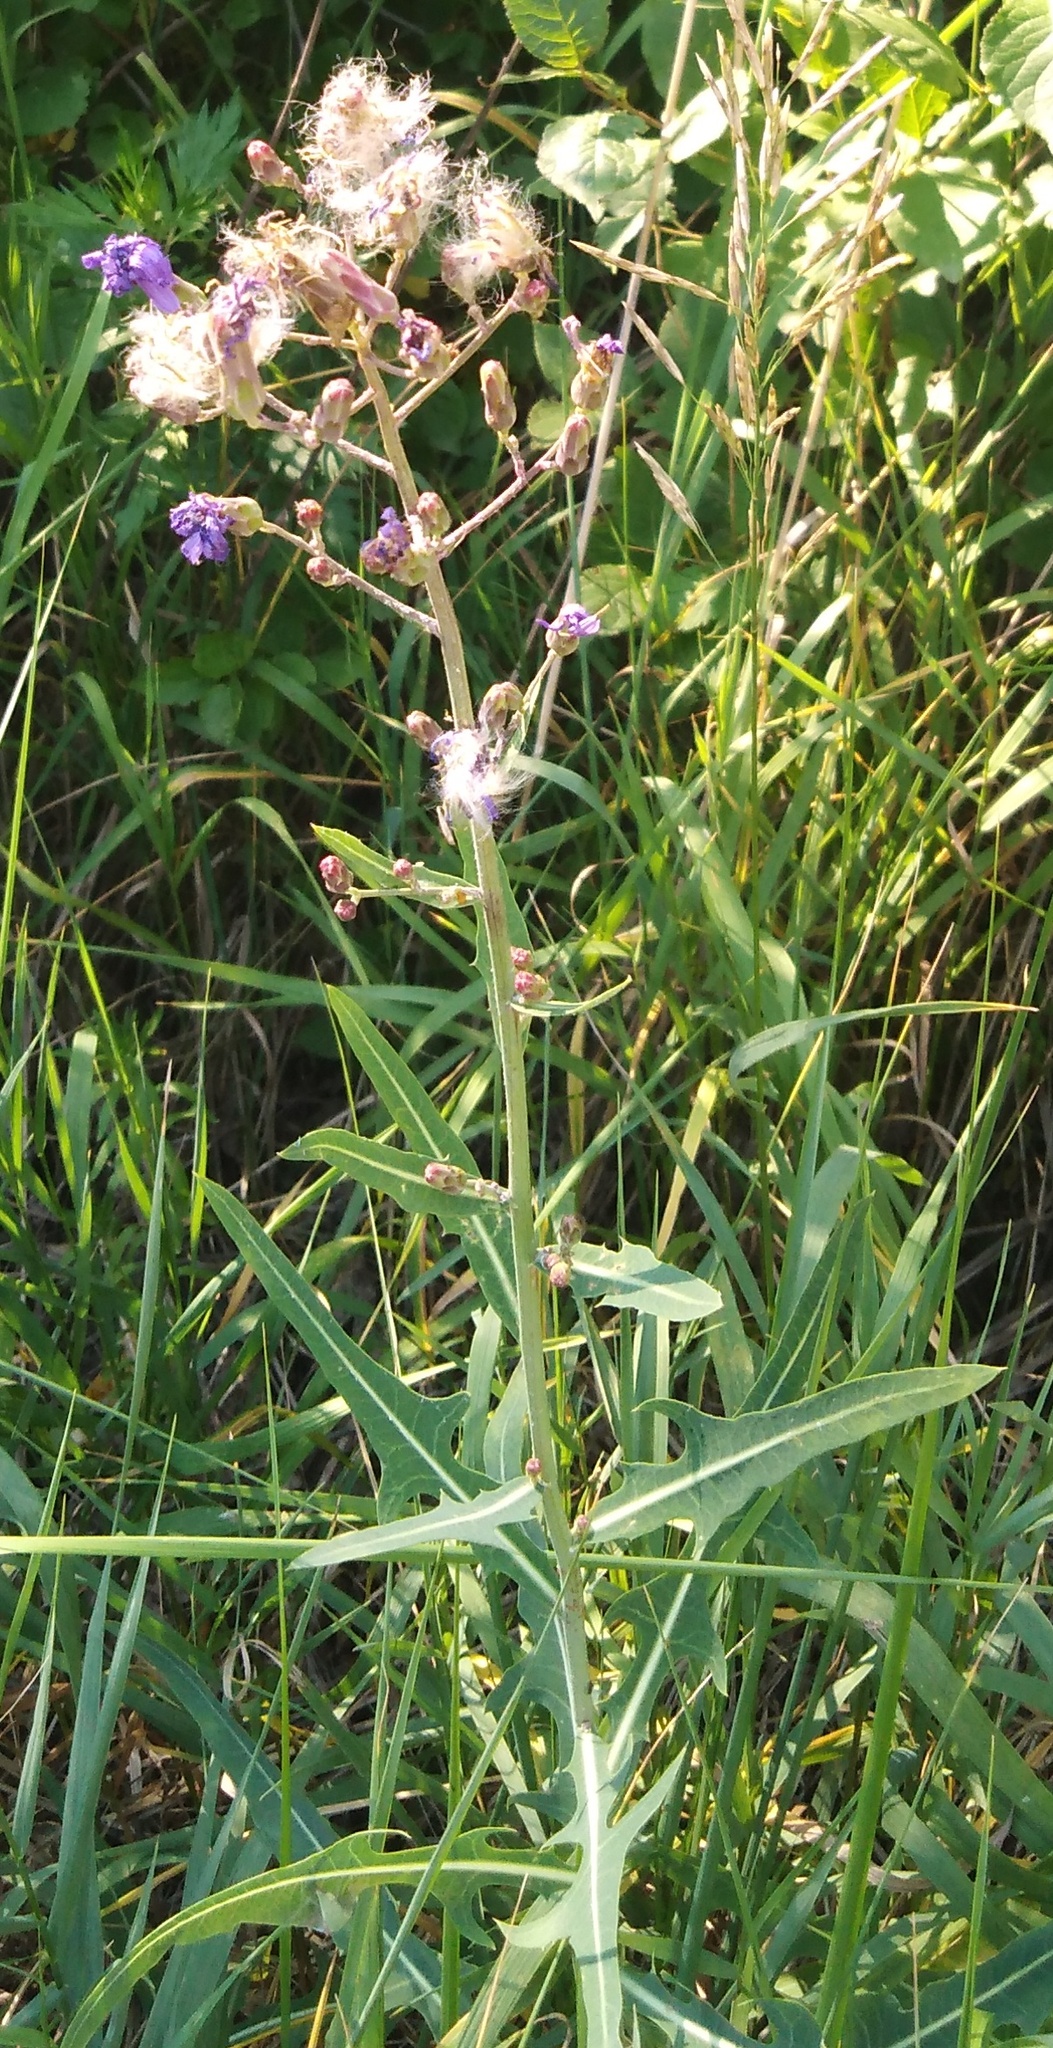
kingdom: Plantae
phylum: Tracheophyta
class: Magnoliopsida
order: Asterales
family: Asteraceae
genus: Lactuca
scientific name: Lactuca tatarica
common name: Blue lettuce
